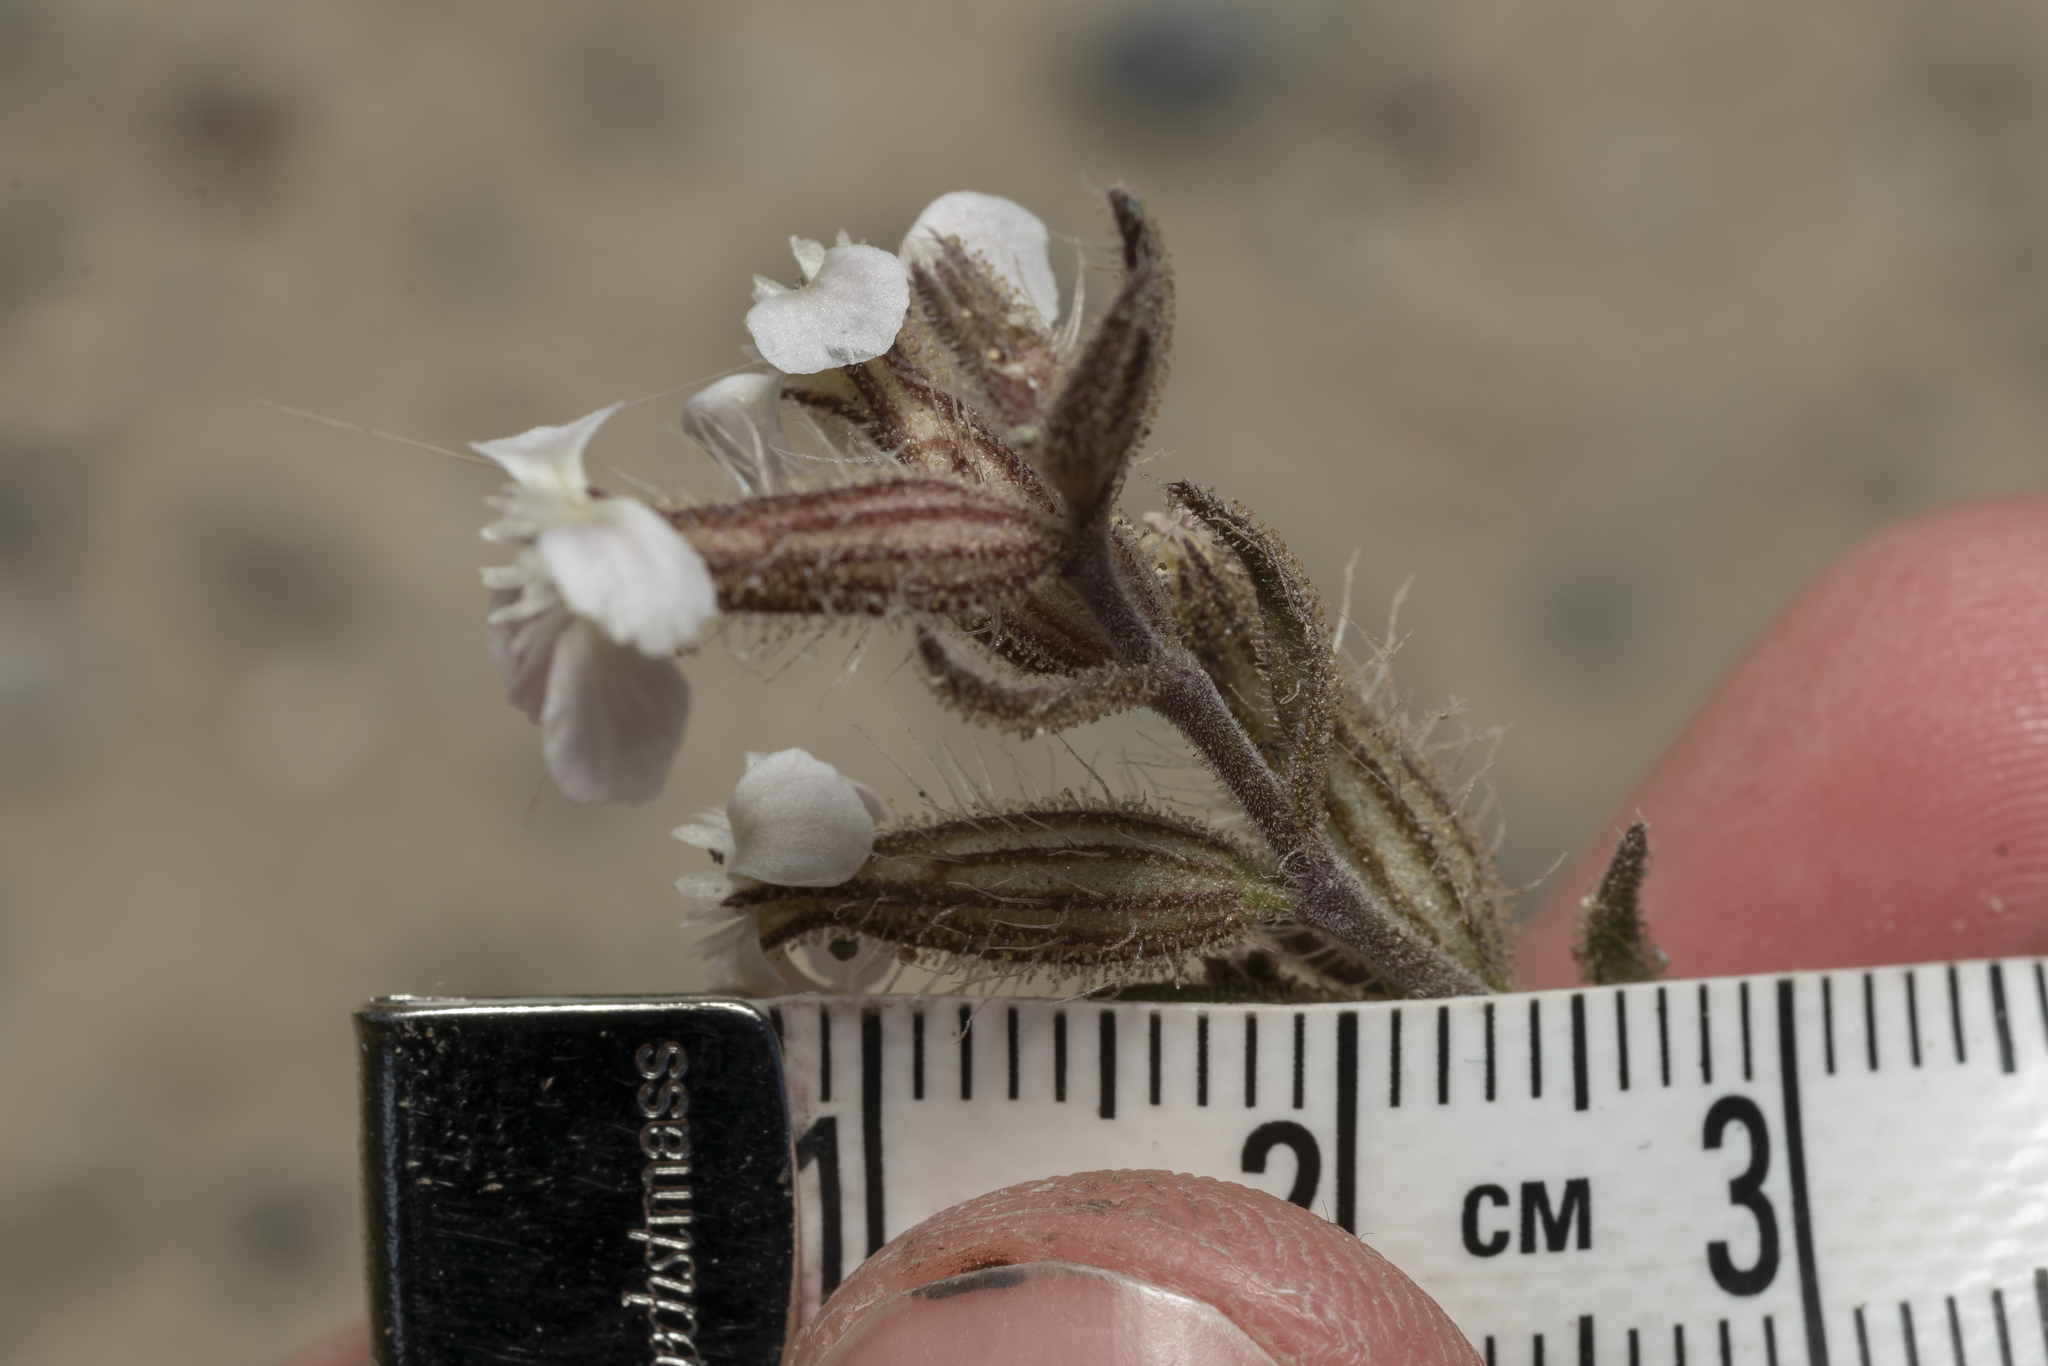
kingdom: Plantae
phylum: Tracheophyta
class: Magnoliopsida
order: Caryophyllales
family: Caryophyllaceae
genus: Silene
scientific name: Silene gallica
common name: Small-flowered catchfly
